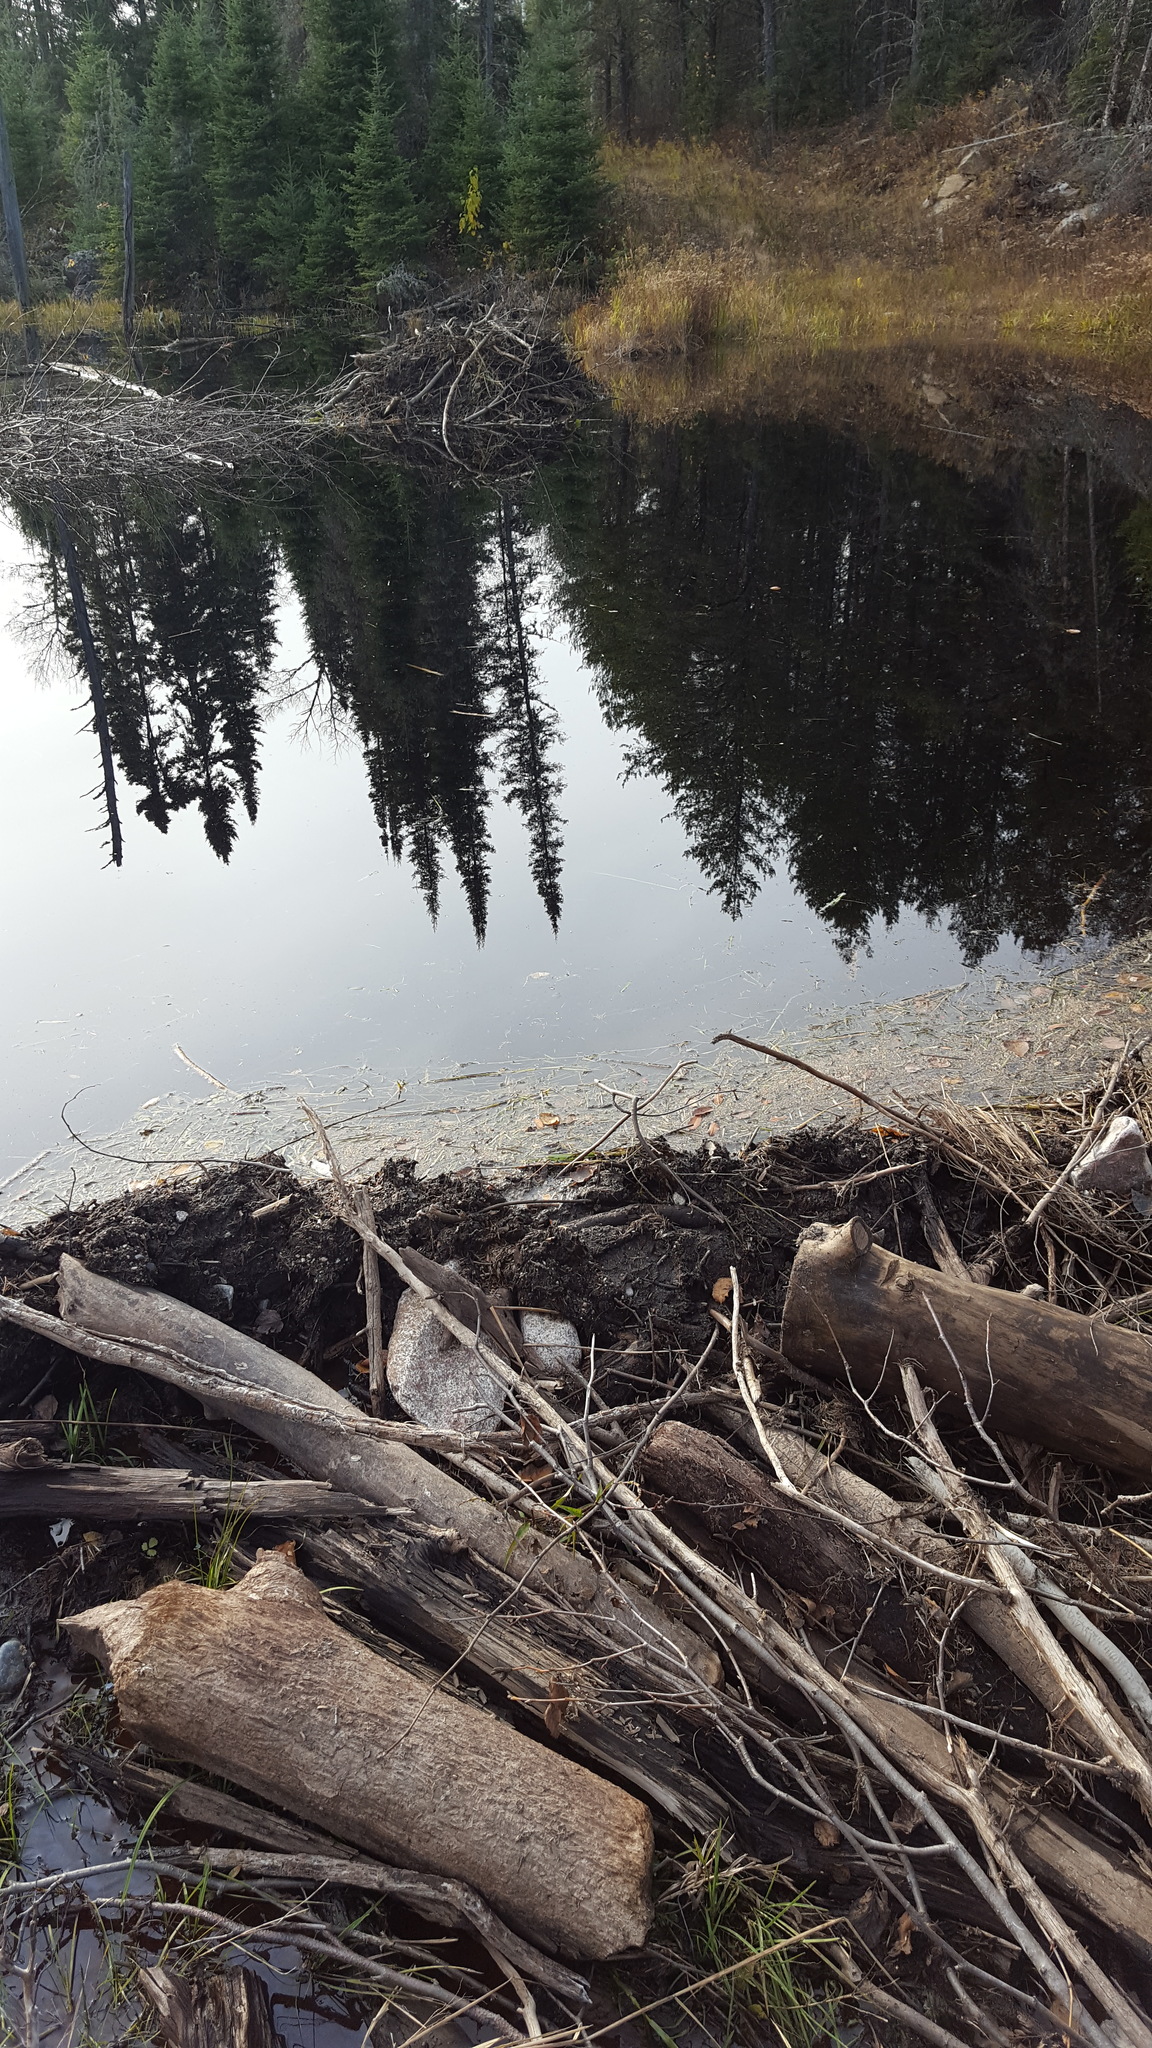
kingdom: Animalia
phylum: Chordata
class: Mammalia
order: Rodentia
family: Castoridae
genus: Castor
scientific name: Castor canadensis
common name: American beaver
